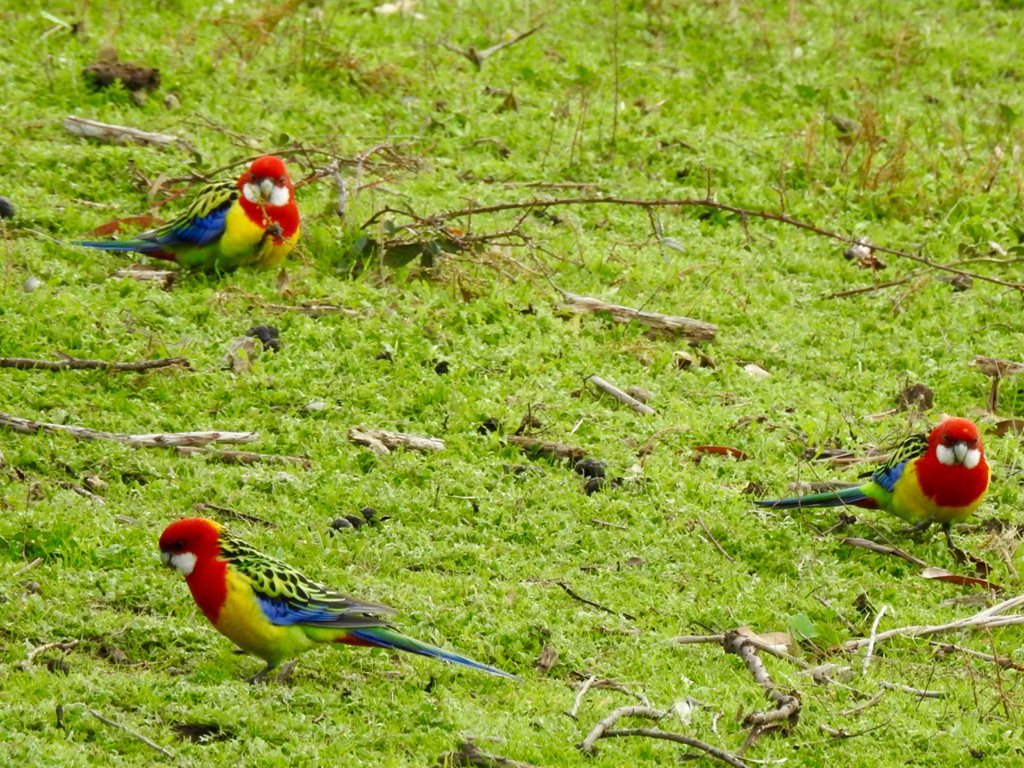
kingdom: Animalia
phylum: Chordata
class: Aves
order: Psittaciformes
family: Psittacidae
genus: Platycercus
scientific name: Platycercus eximius
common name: Eastern rosella
